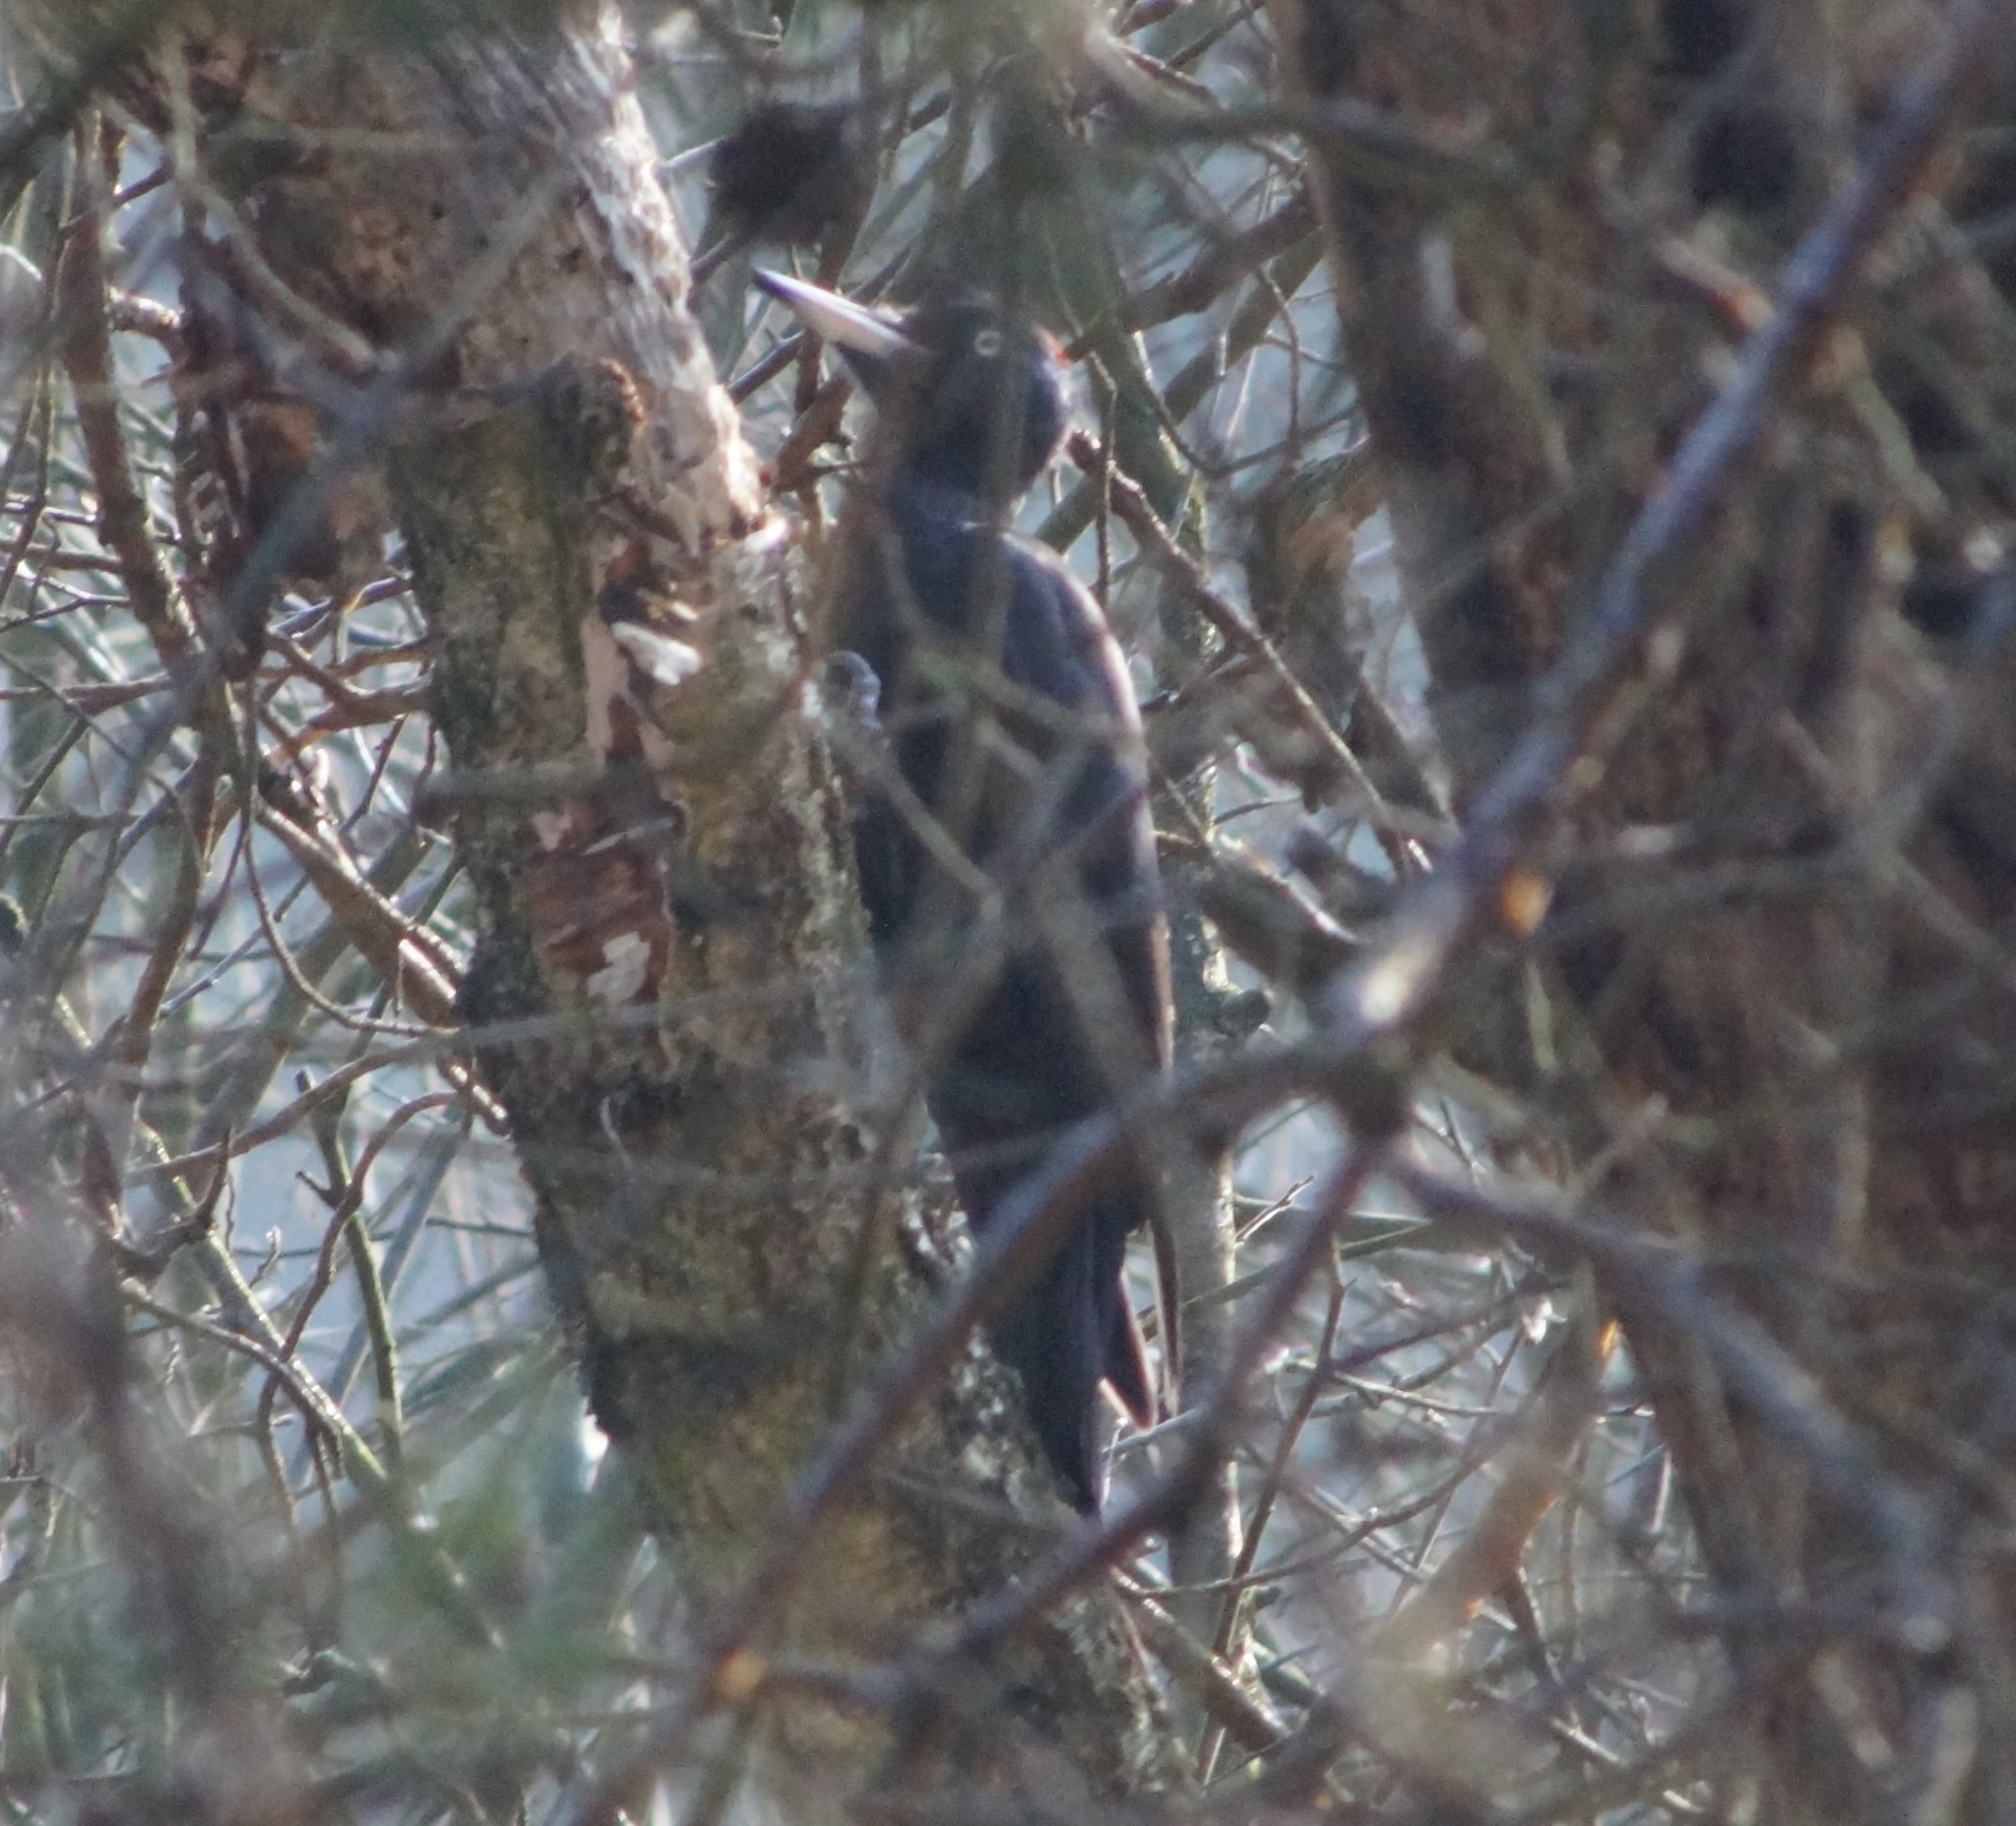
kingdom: Animalia
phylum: Chordata
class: Aves
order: Piciformes
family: Picidae
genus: Dryocopus
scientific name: Dryocopus martius
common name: Black woodpecker
